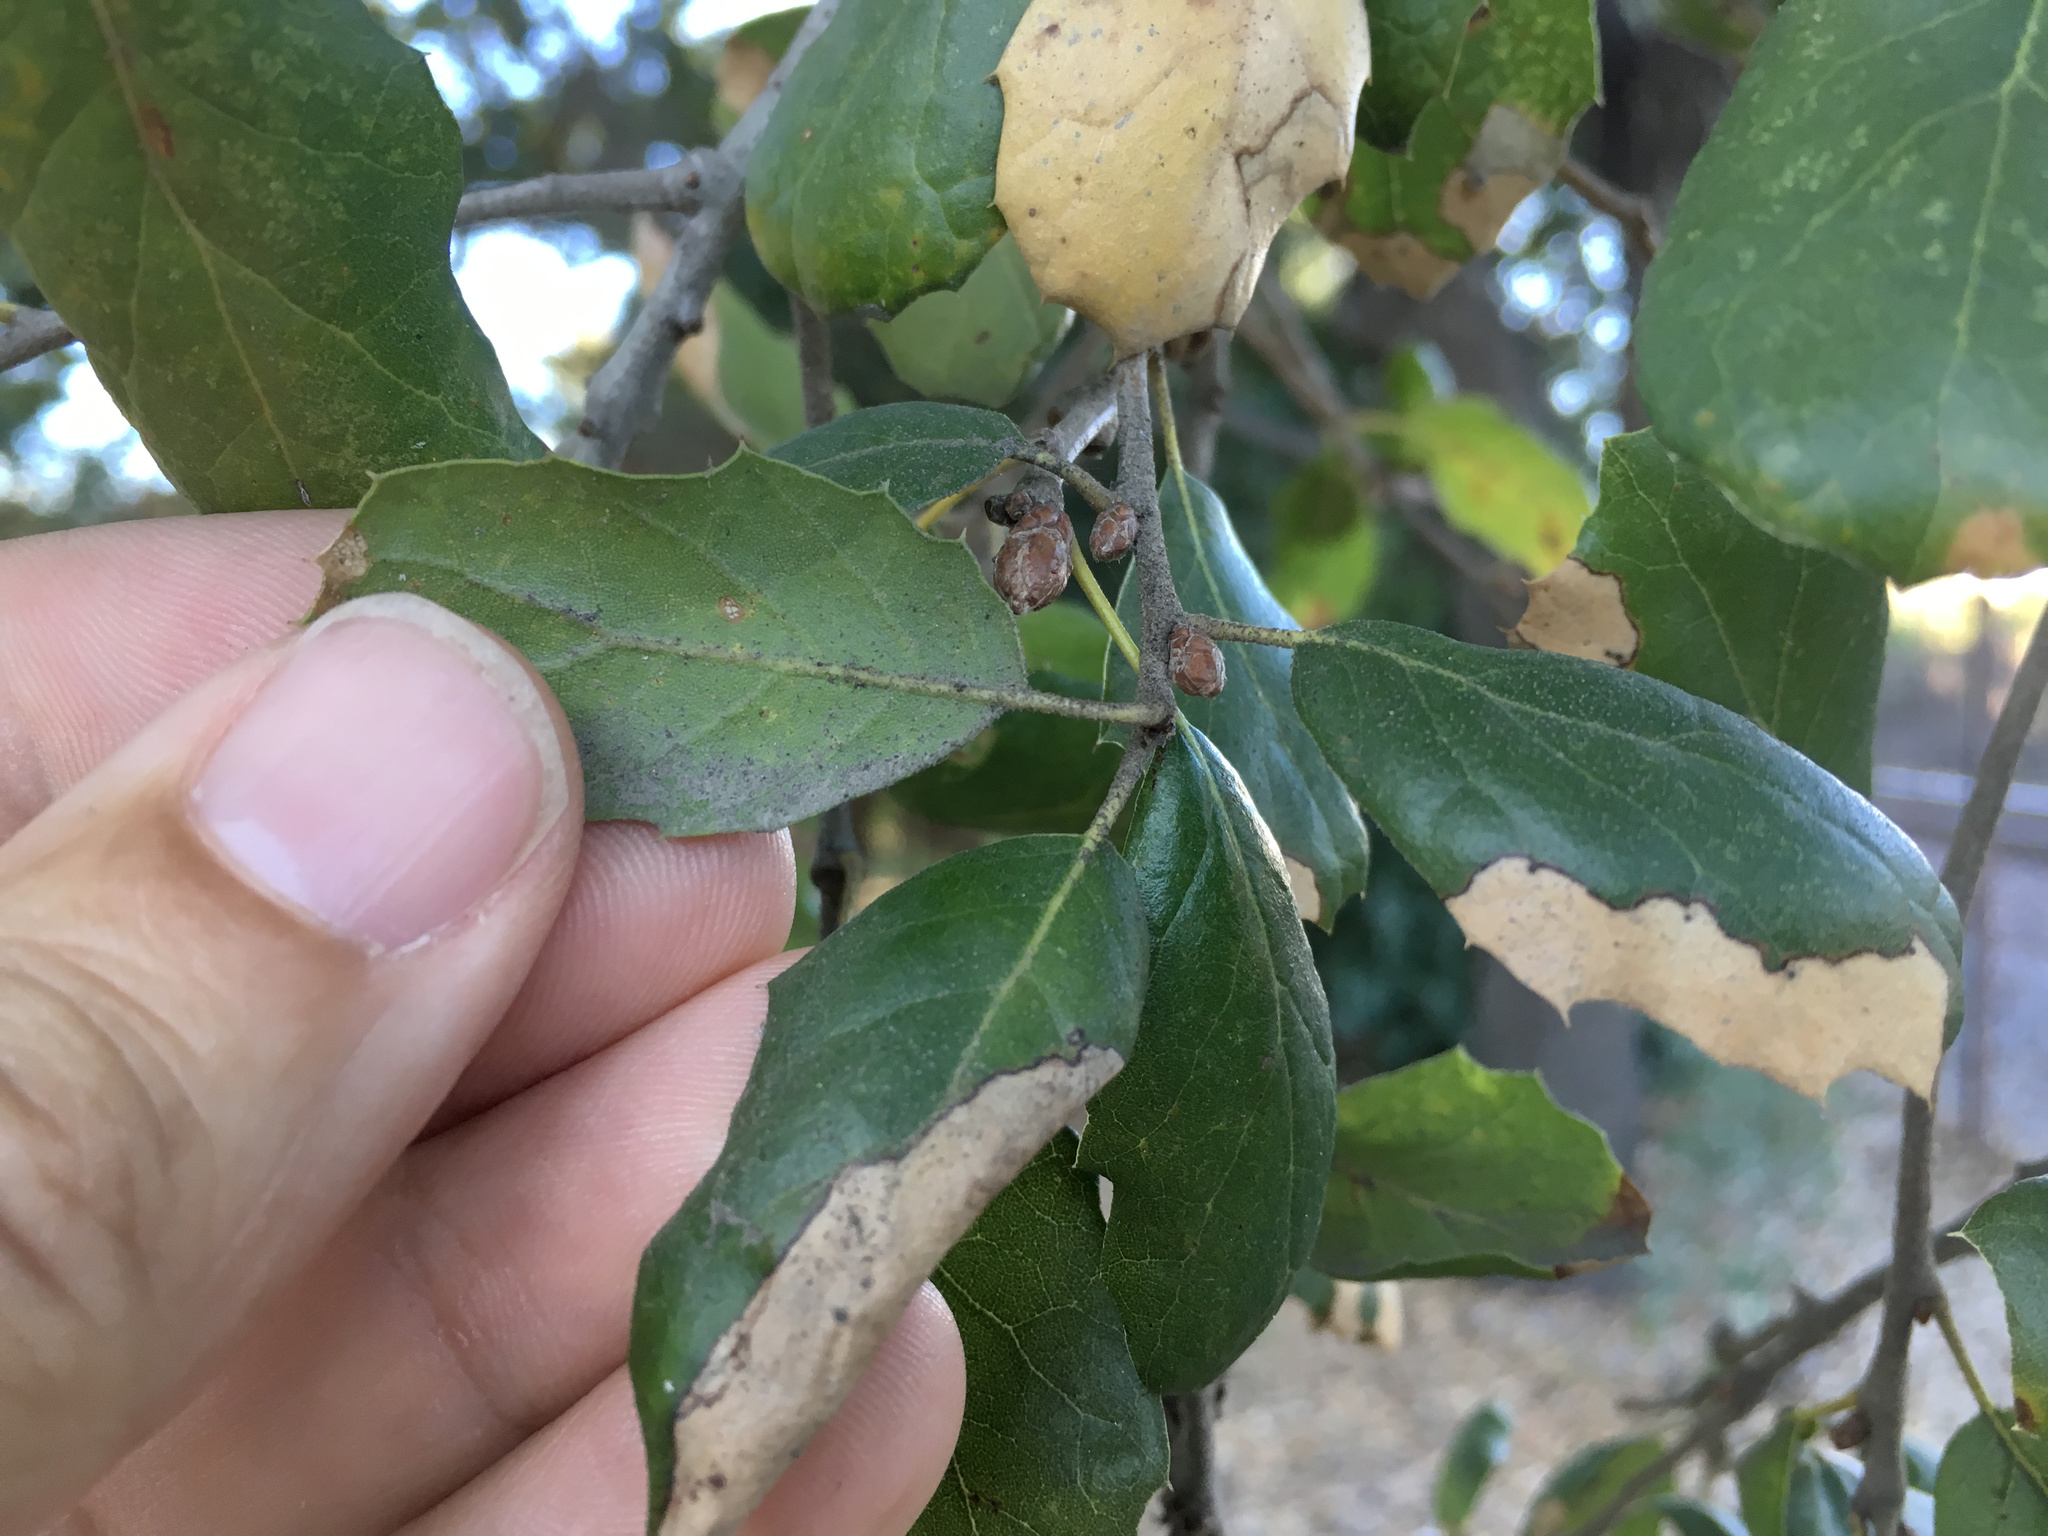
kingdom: Plantae
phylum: Tracheophyta
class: Magnoliopsida
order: Fagales
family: Fagaceae
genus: Quercus
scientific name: Quercus agrifolia
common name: California live oak
